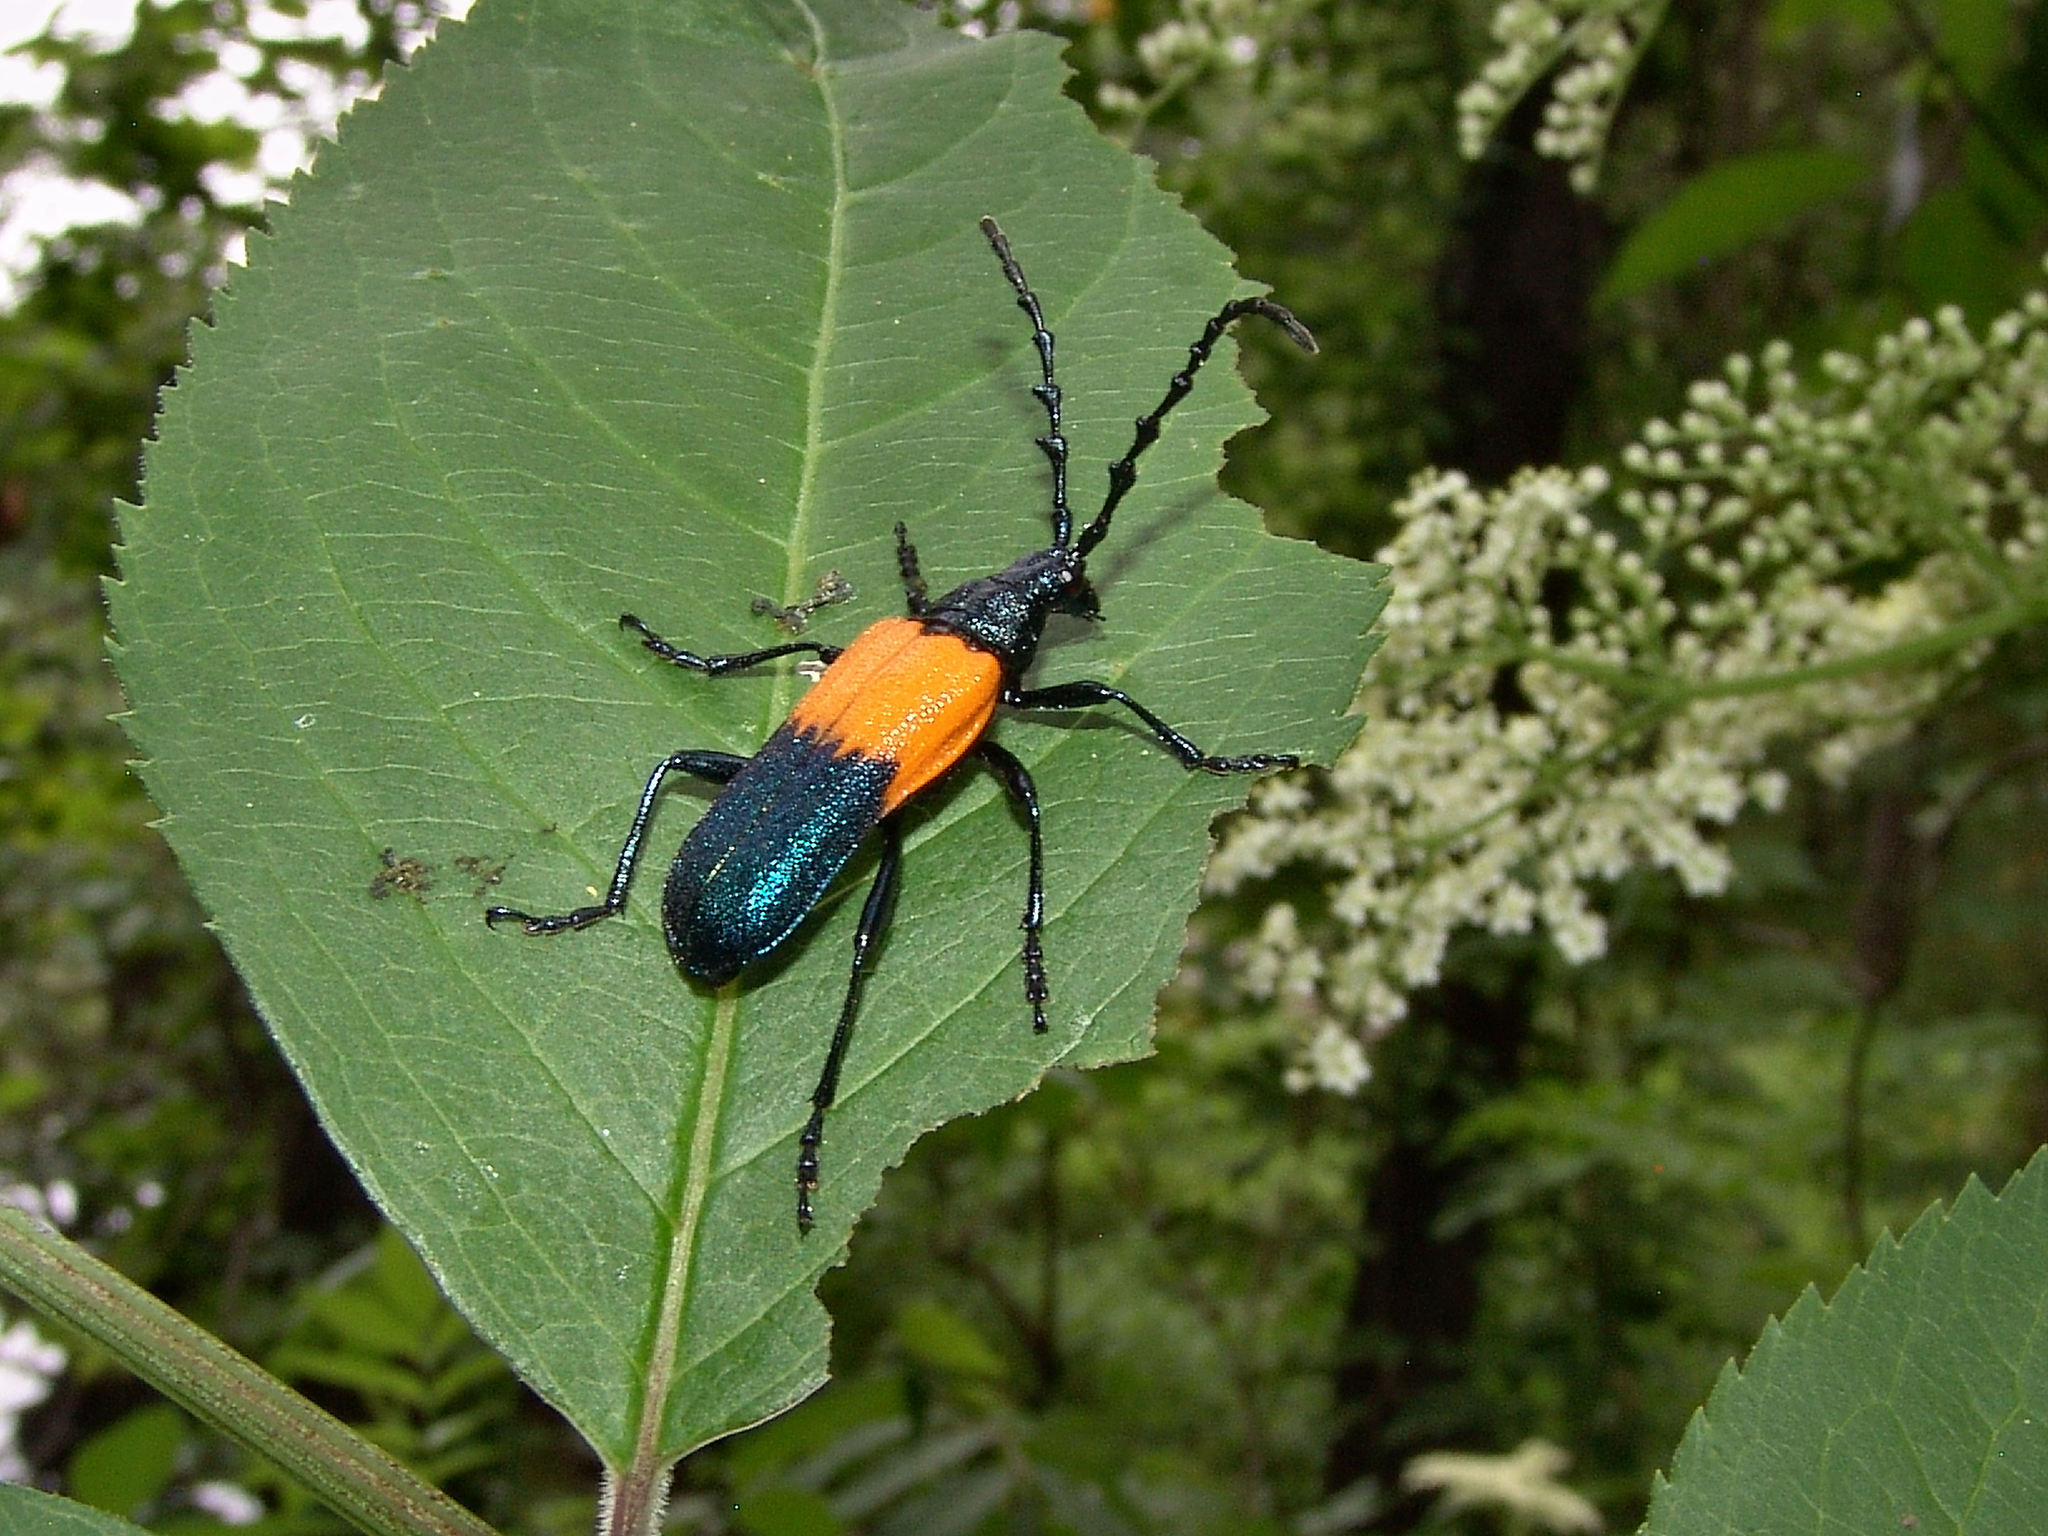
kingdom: Animalia
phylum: Arthropoda
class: Insecta
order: Coleoptera
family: Cerambycidae
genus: Desmocerus
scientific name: Desmocerus palliatus
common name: Eastern elderberry borer
